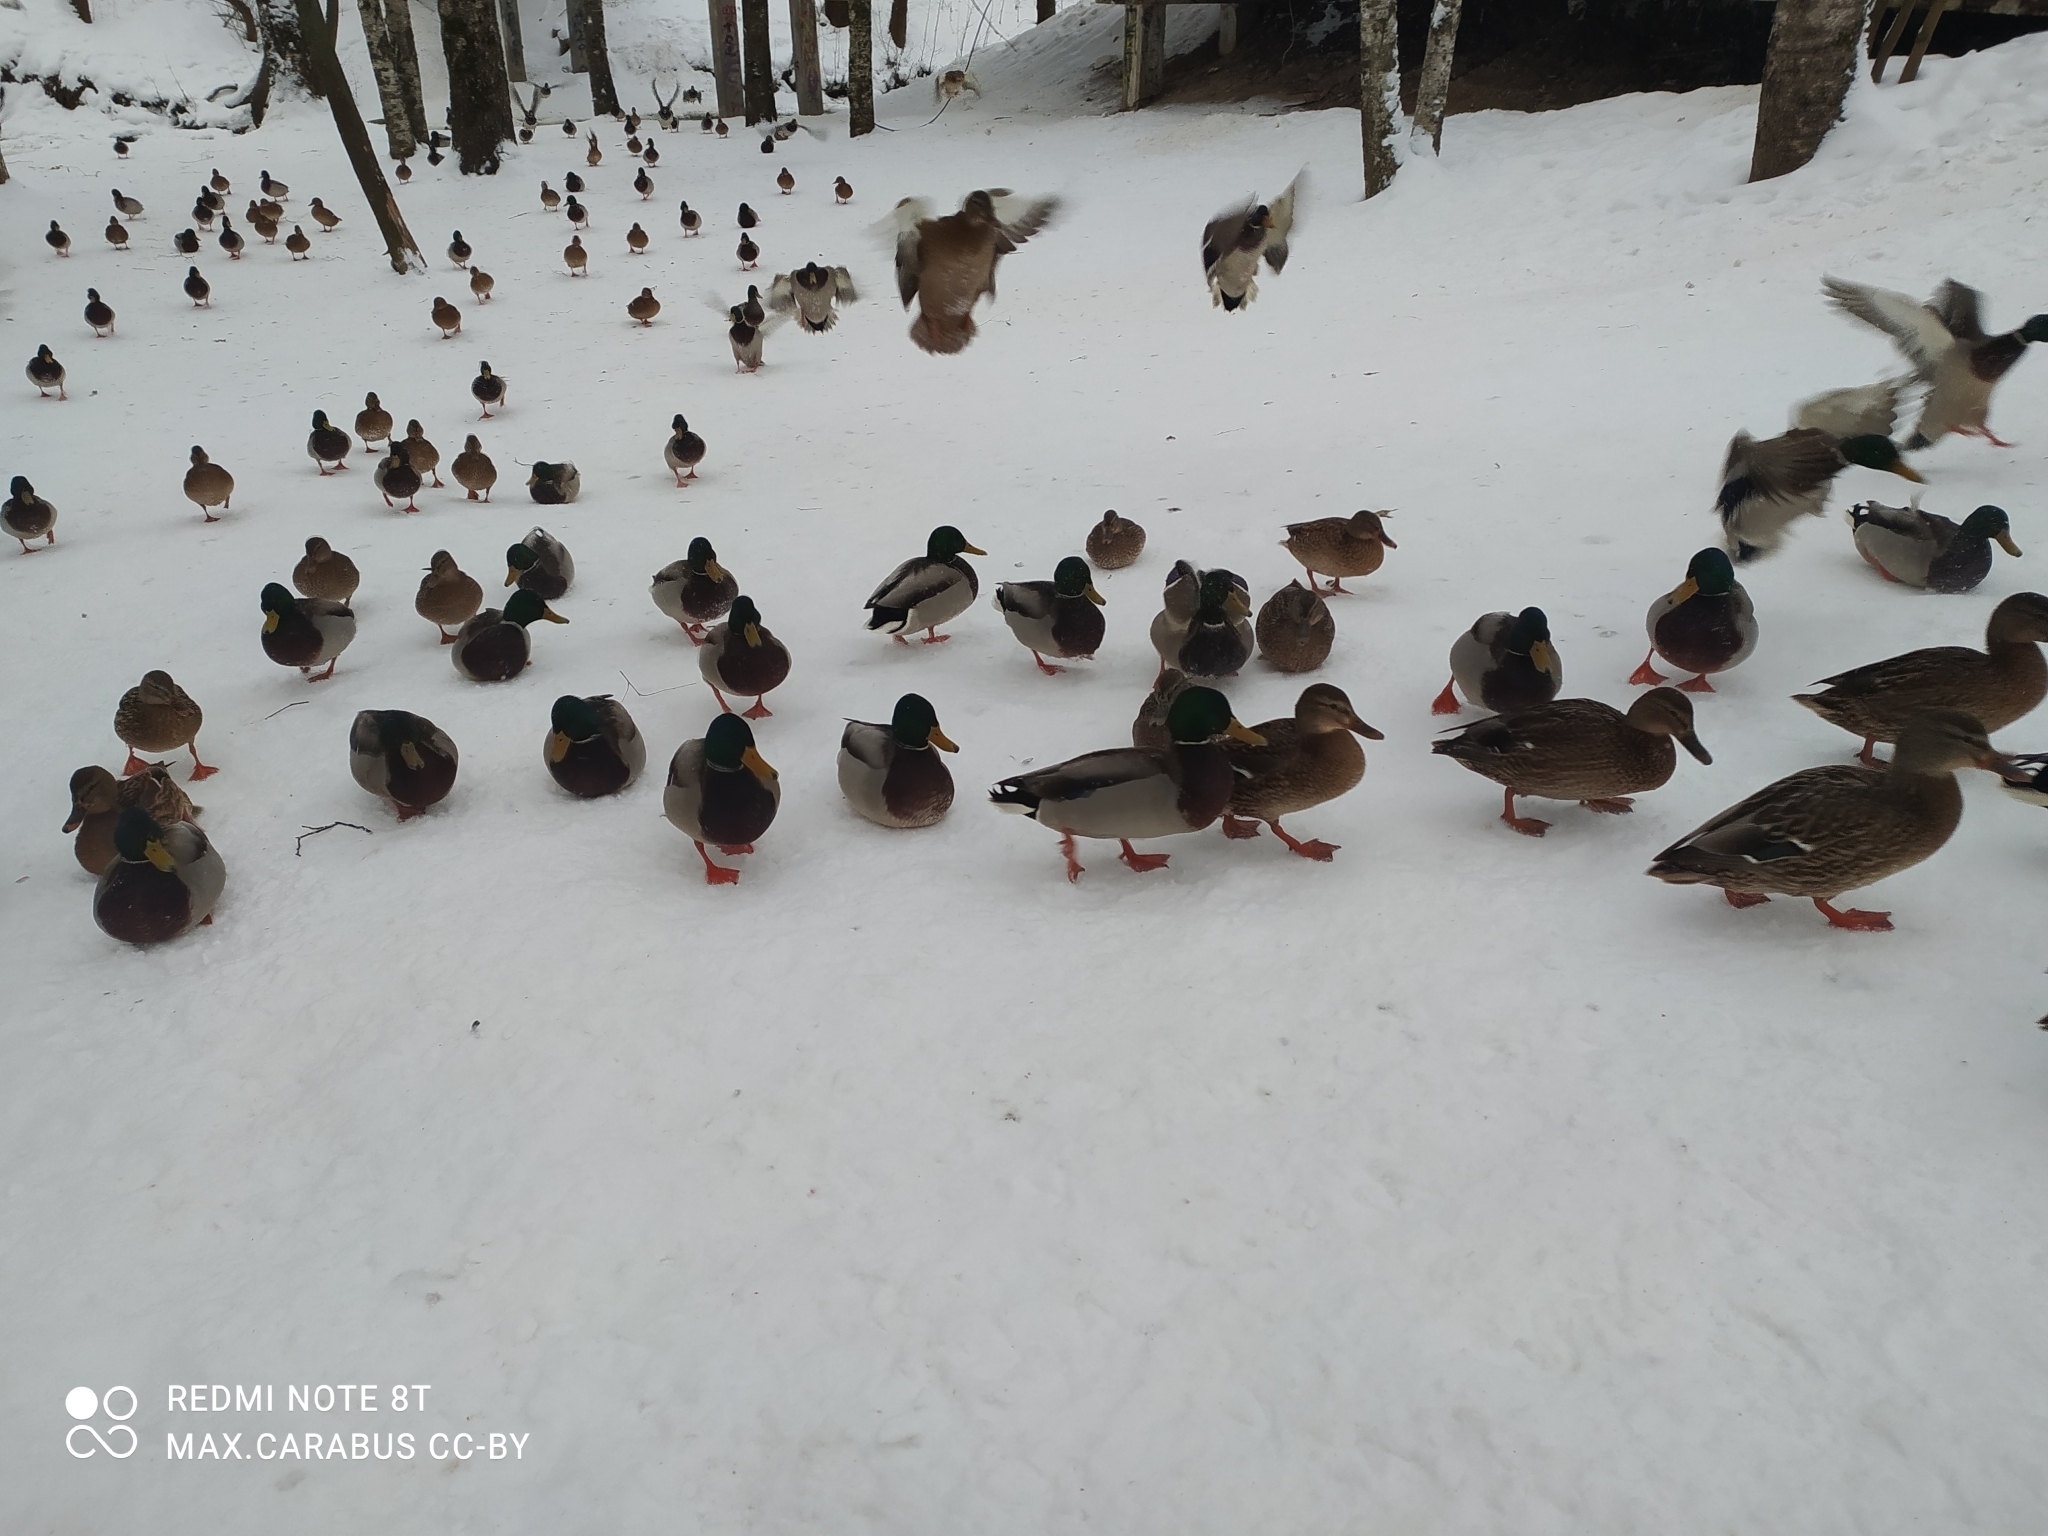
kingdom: Animalia
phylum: Chordata
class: Aves
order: Anseriformes
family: Anatidae
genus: Anas
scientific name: Anas platyrhynchos
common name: Mallard
